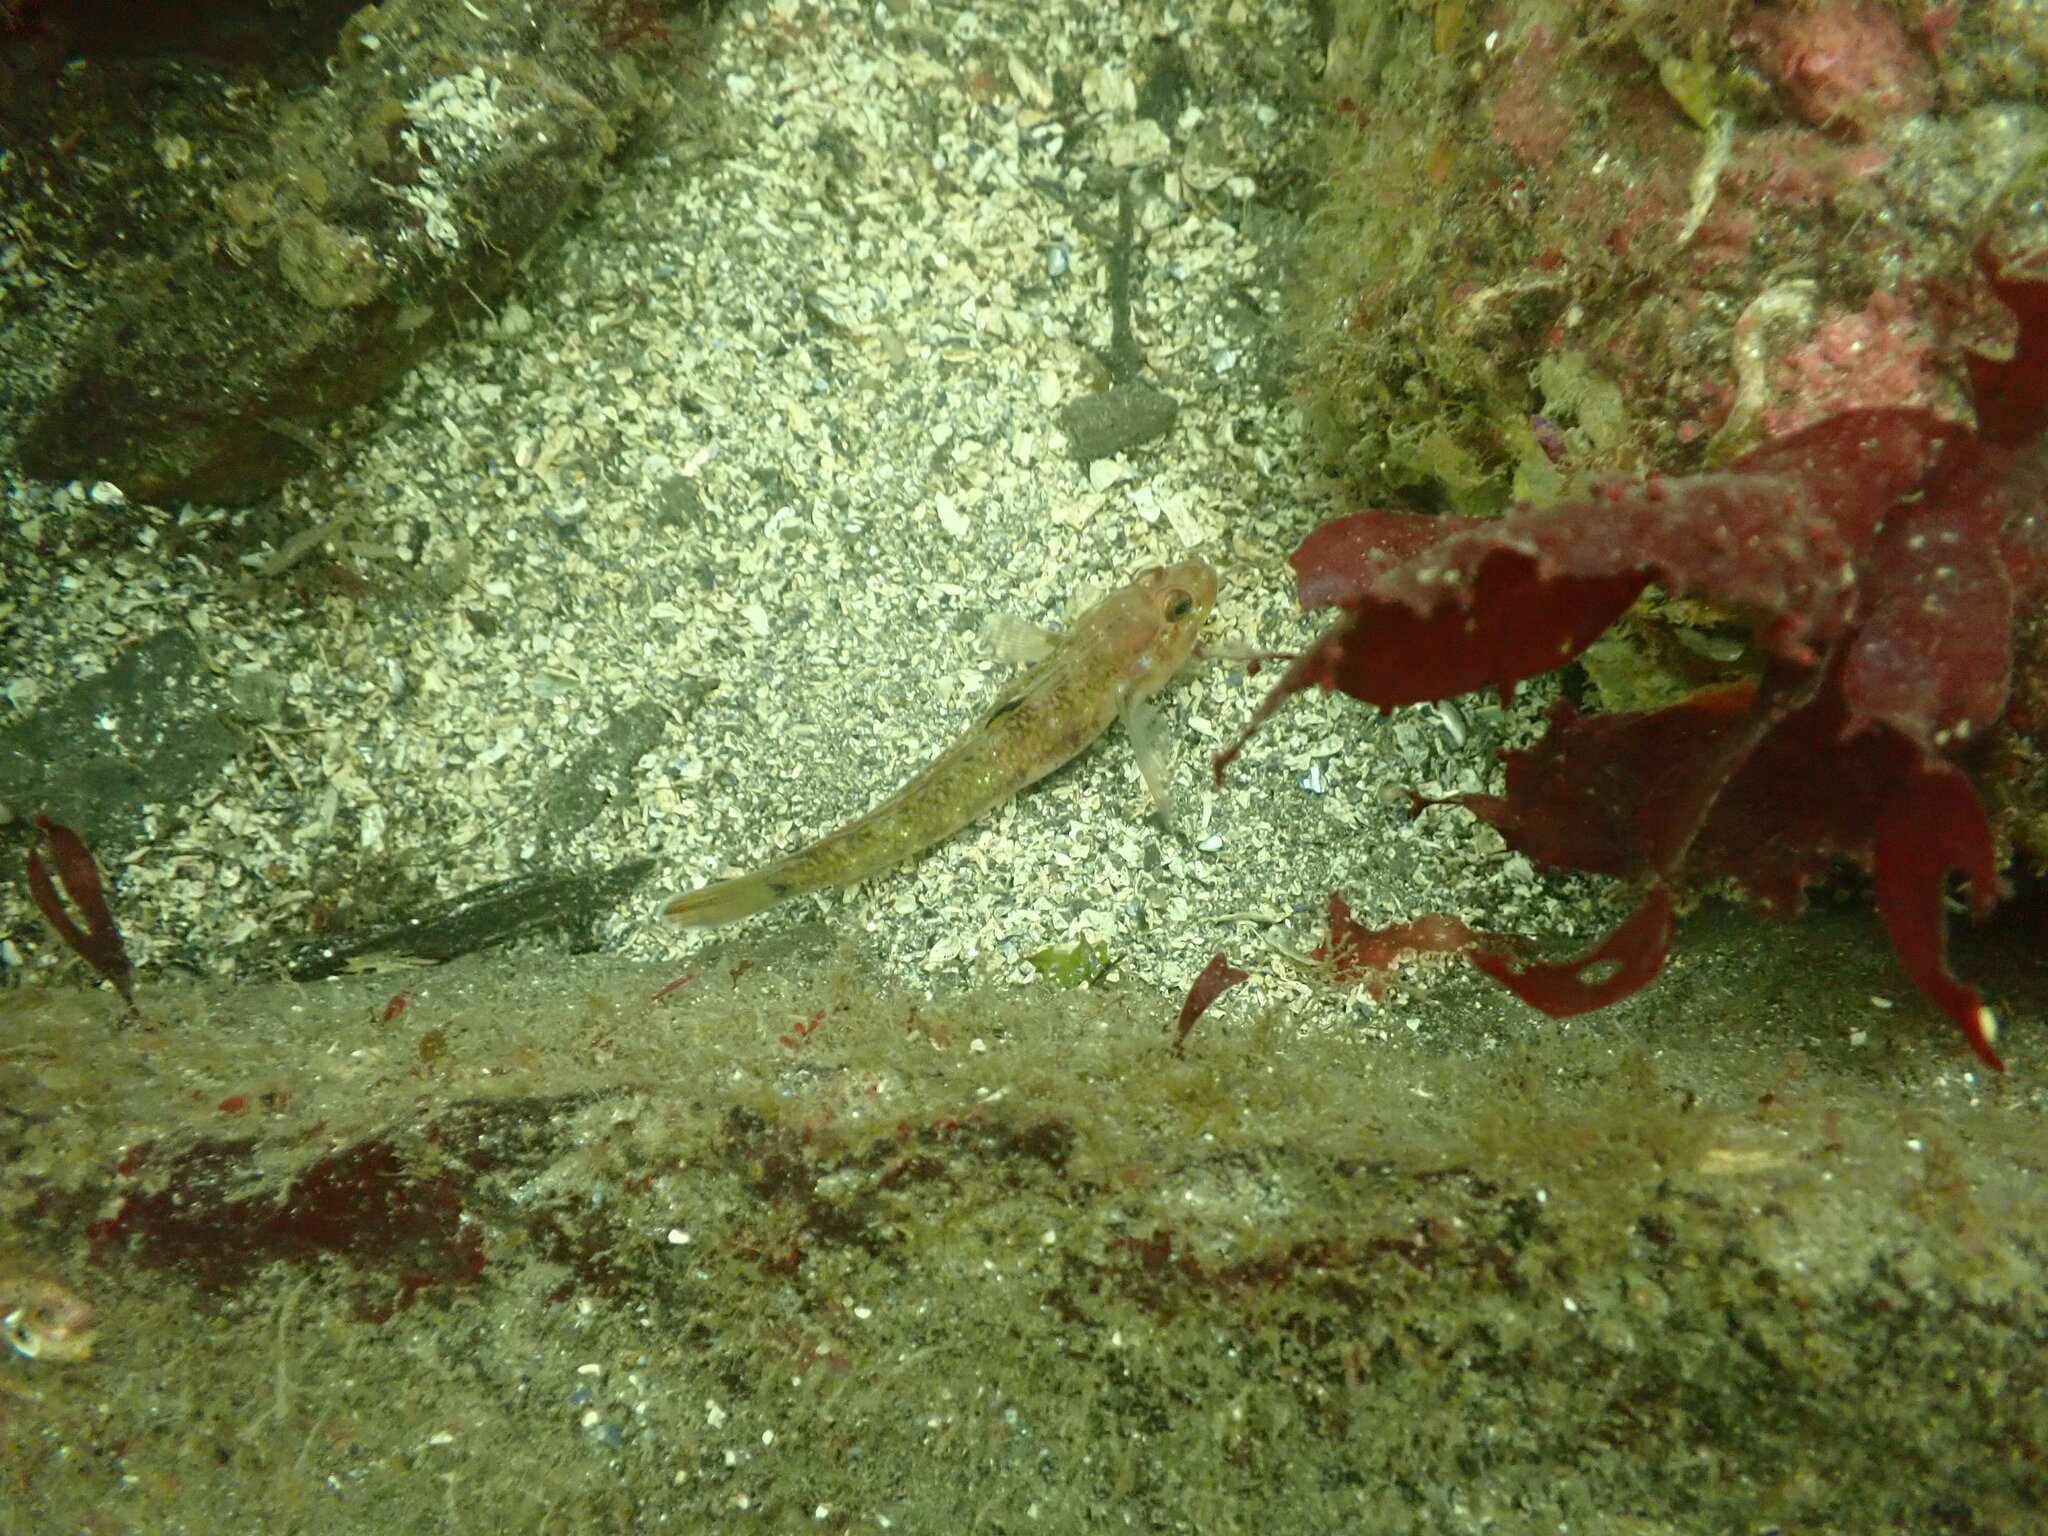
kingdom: Animalia
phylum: Chordata
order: Perciformes
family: Gobiidae
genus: Rhinogobiops
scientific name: Rhinogobiops nicholsii
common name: Blackeye goby
